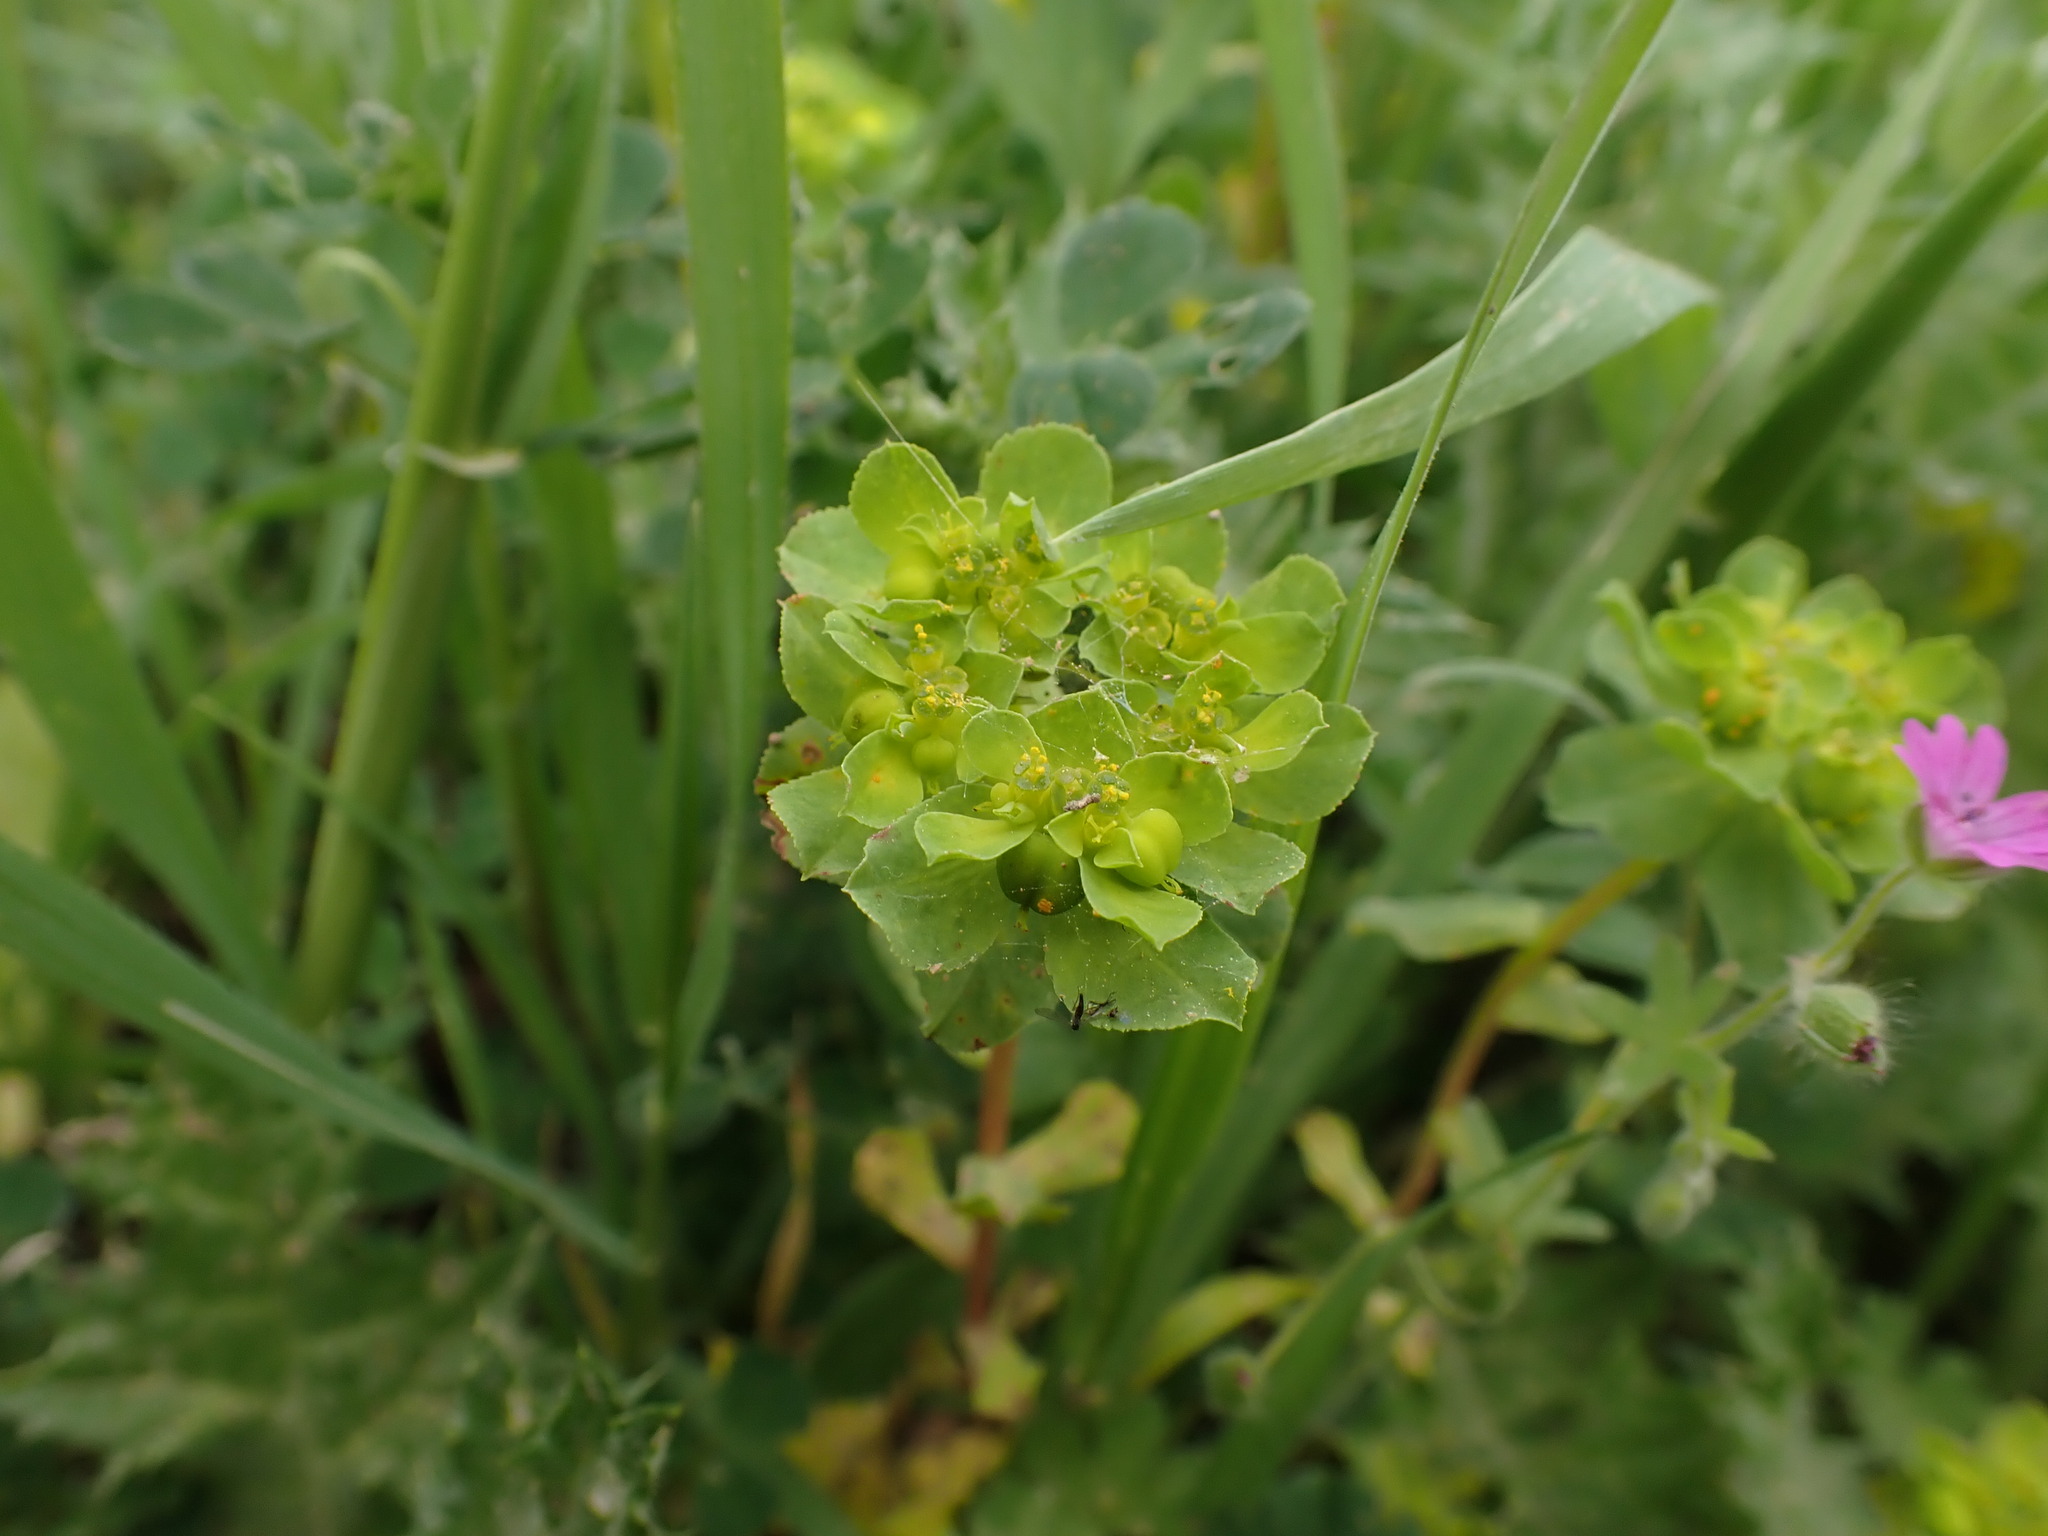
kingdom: Plantae
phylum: Tracheophyta
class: Magnoliopsida
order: Malpighiales
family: Euphorbiaceae
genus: Euphorbia
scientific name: Euphorbia helioscopia
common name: Sun spurge
